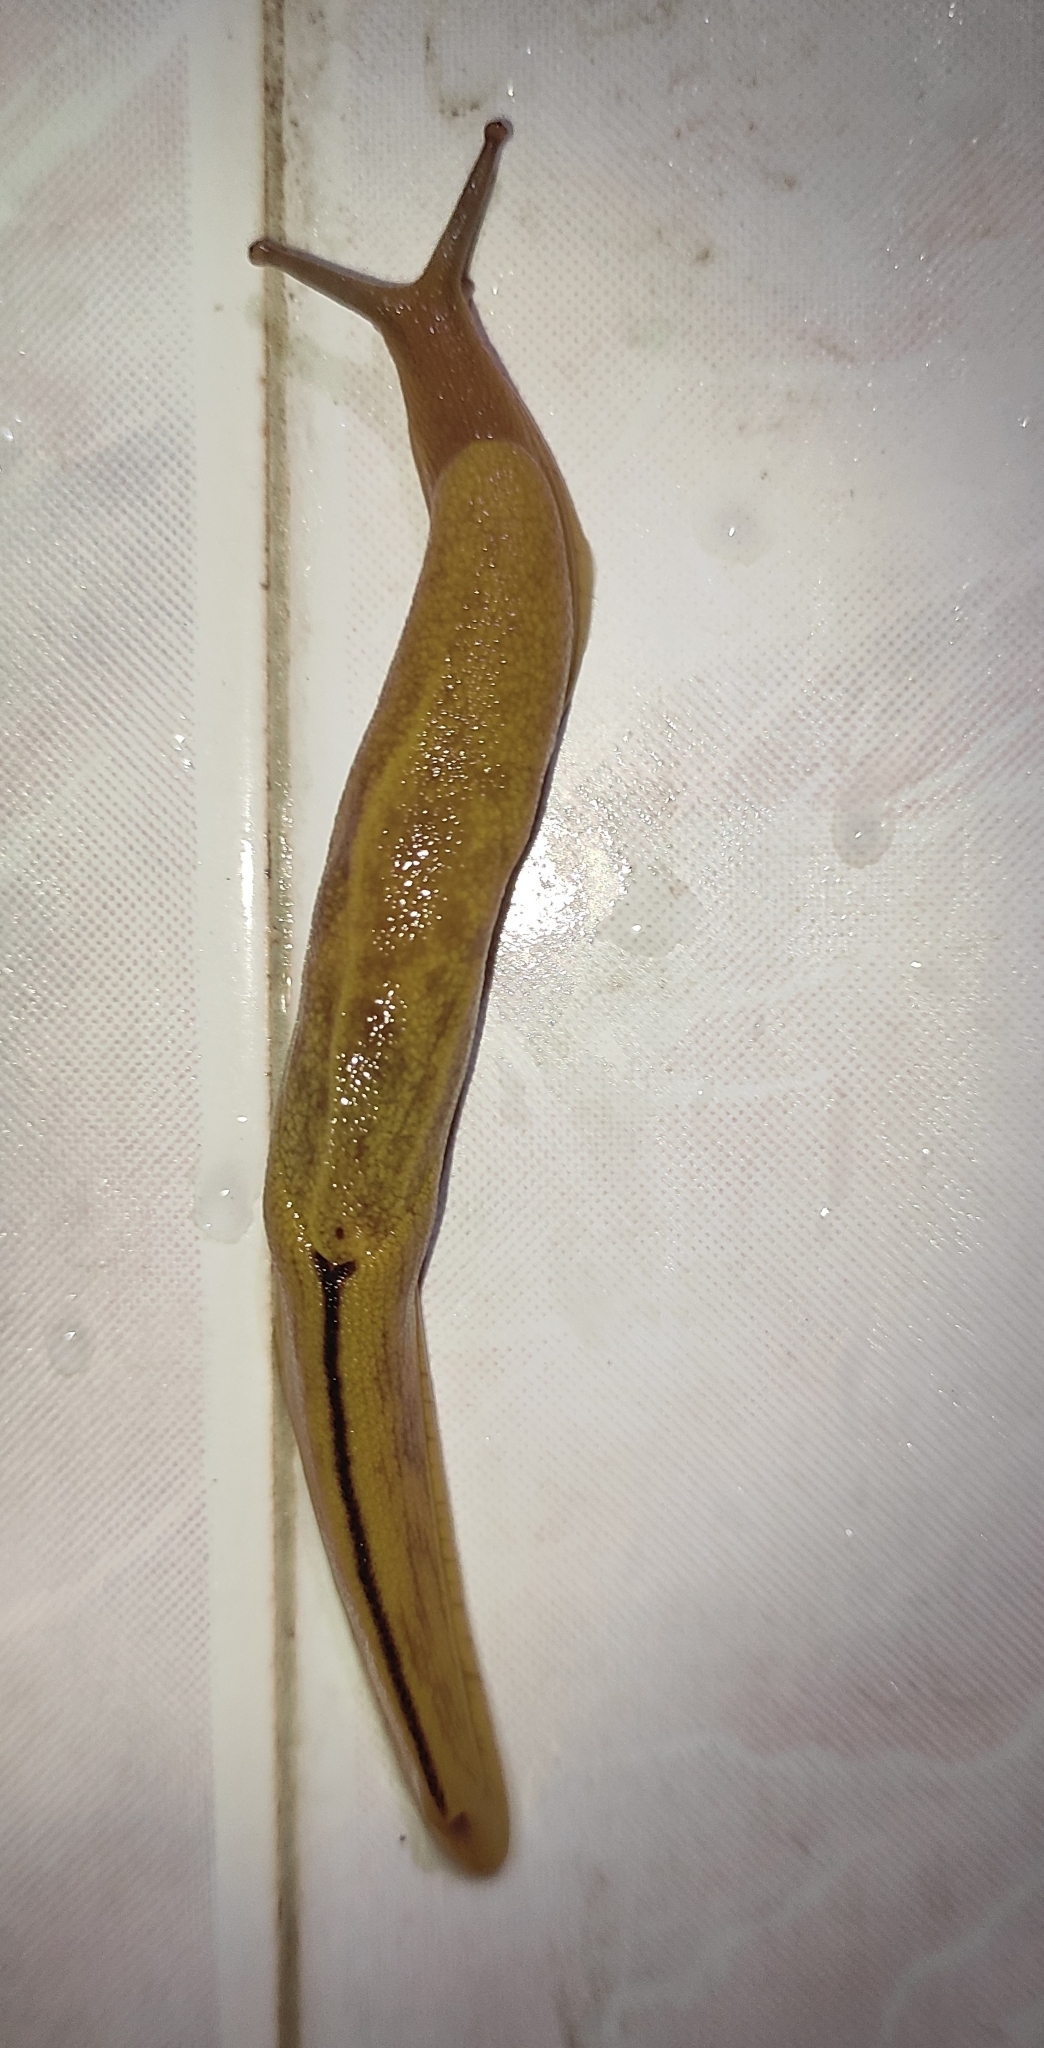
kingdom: Animalia
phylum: Mollusca
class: Gastropoda
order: Stylommatophora
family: Ariophantidae
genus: Mariaella
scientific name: Mariaella dussumieri
